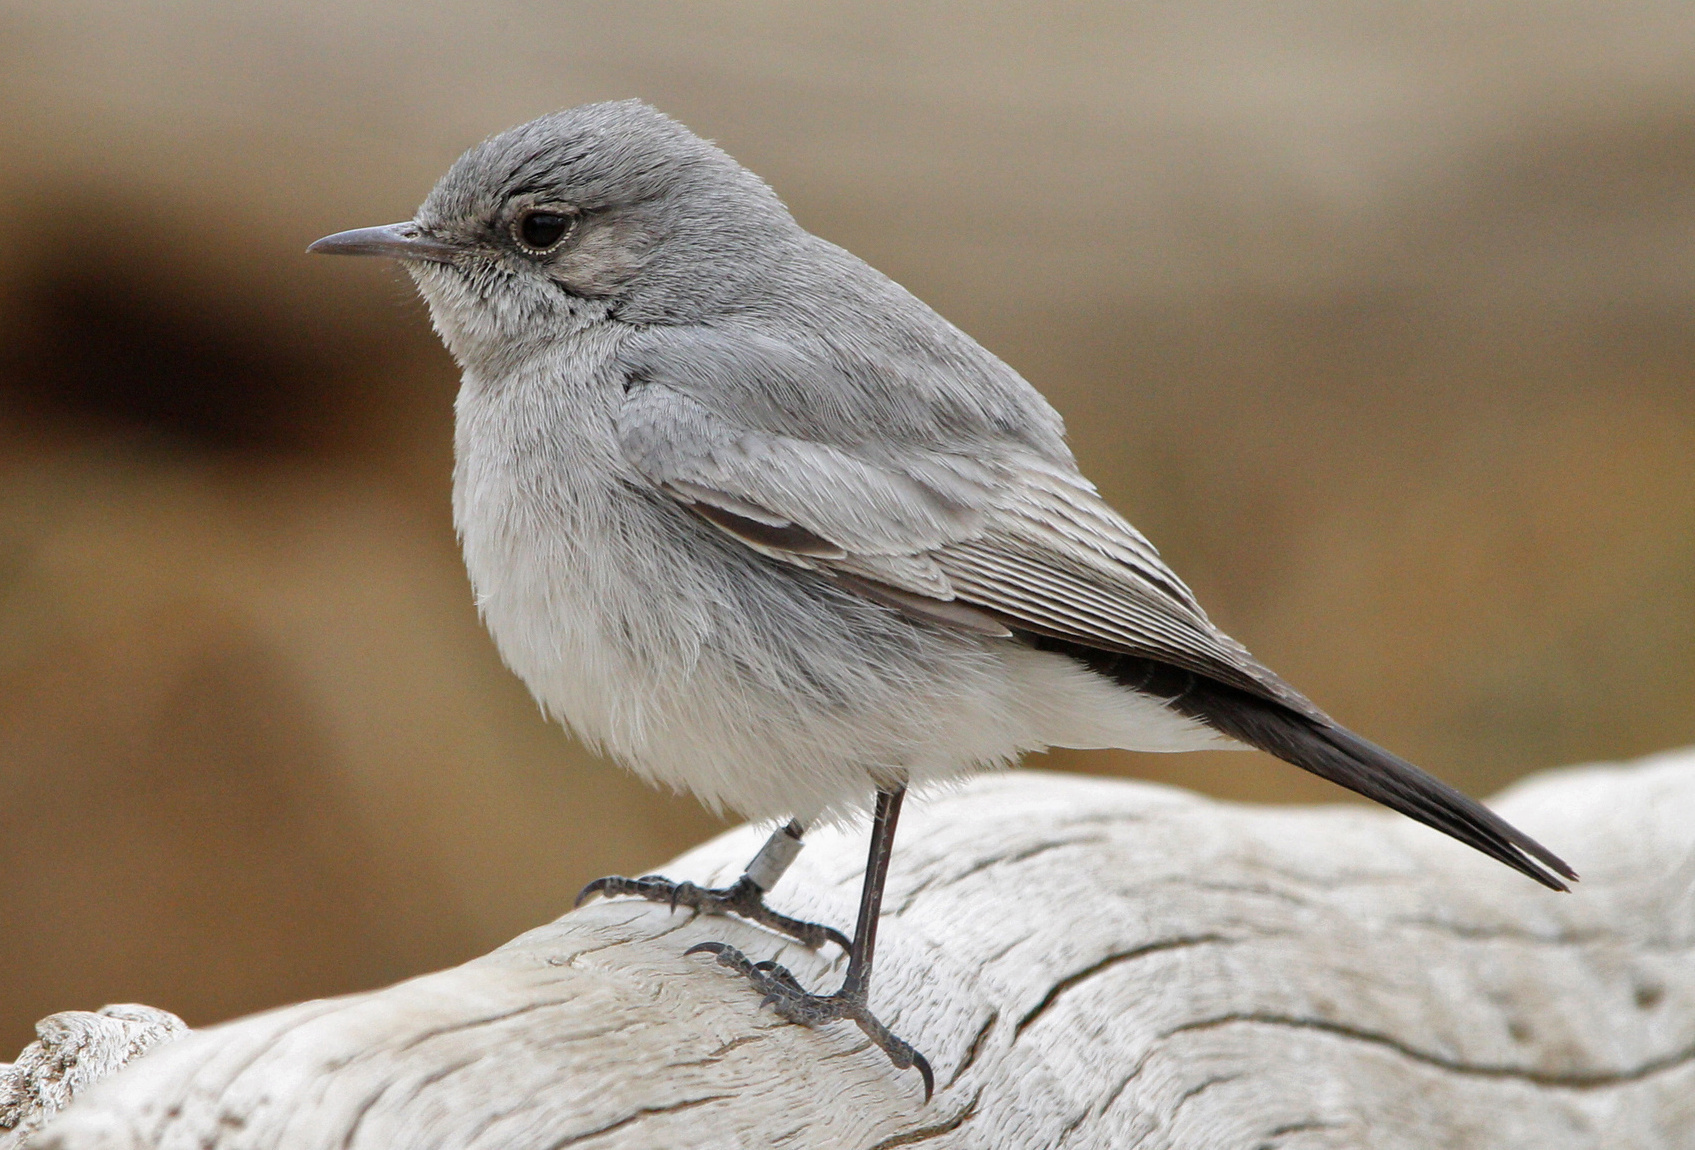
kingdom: Animalia
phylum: Chordata
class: Aves
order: Passeriformes
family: Muscicapidae
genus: Oenanthe
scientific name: Oenanthe melanura
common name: Blackstart
